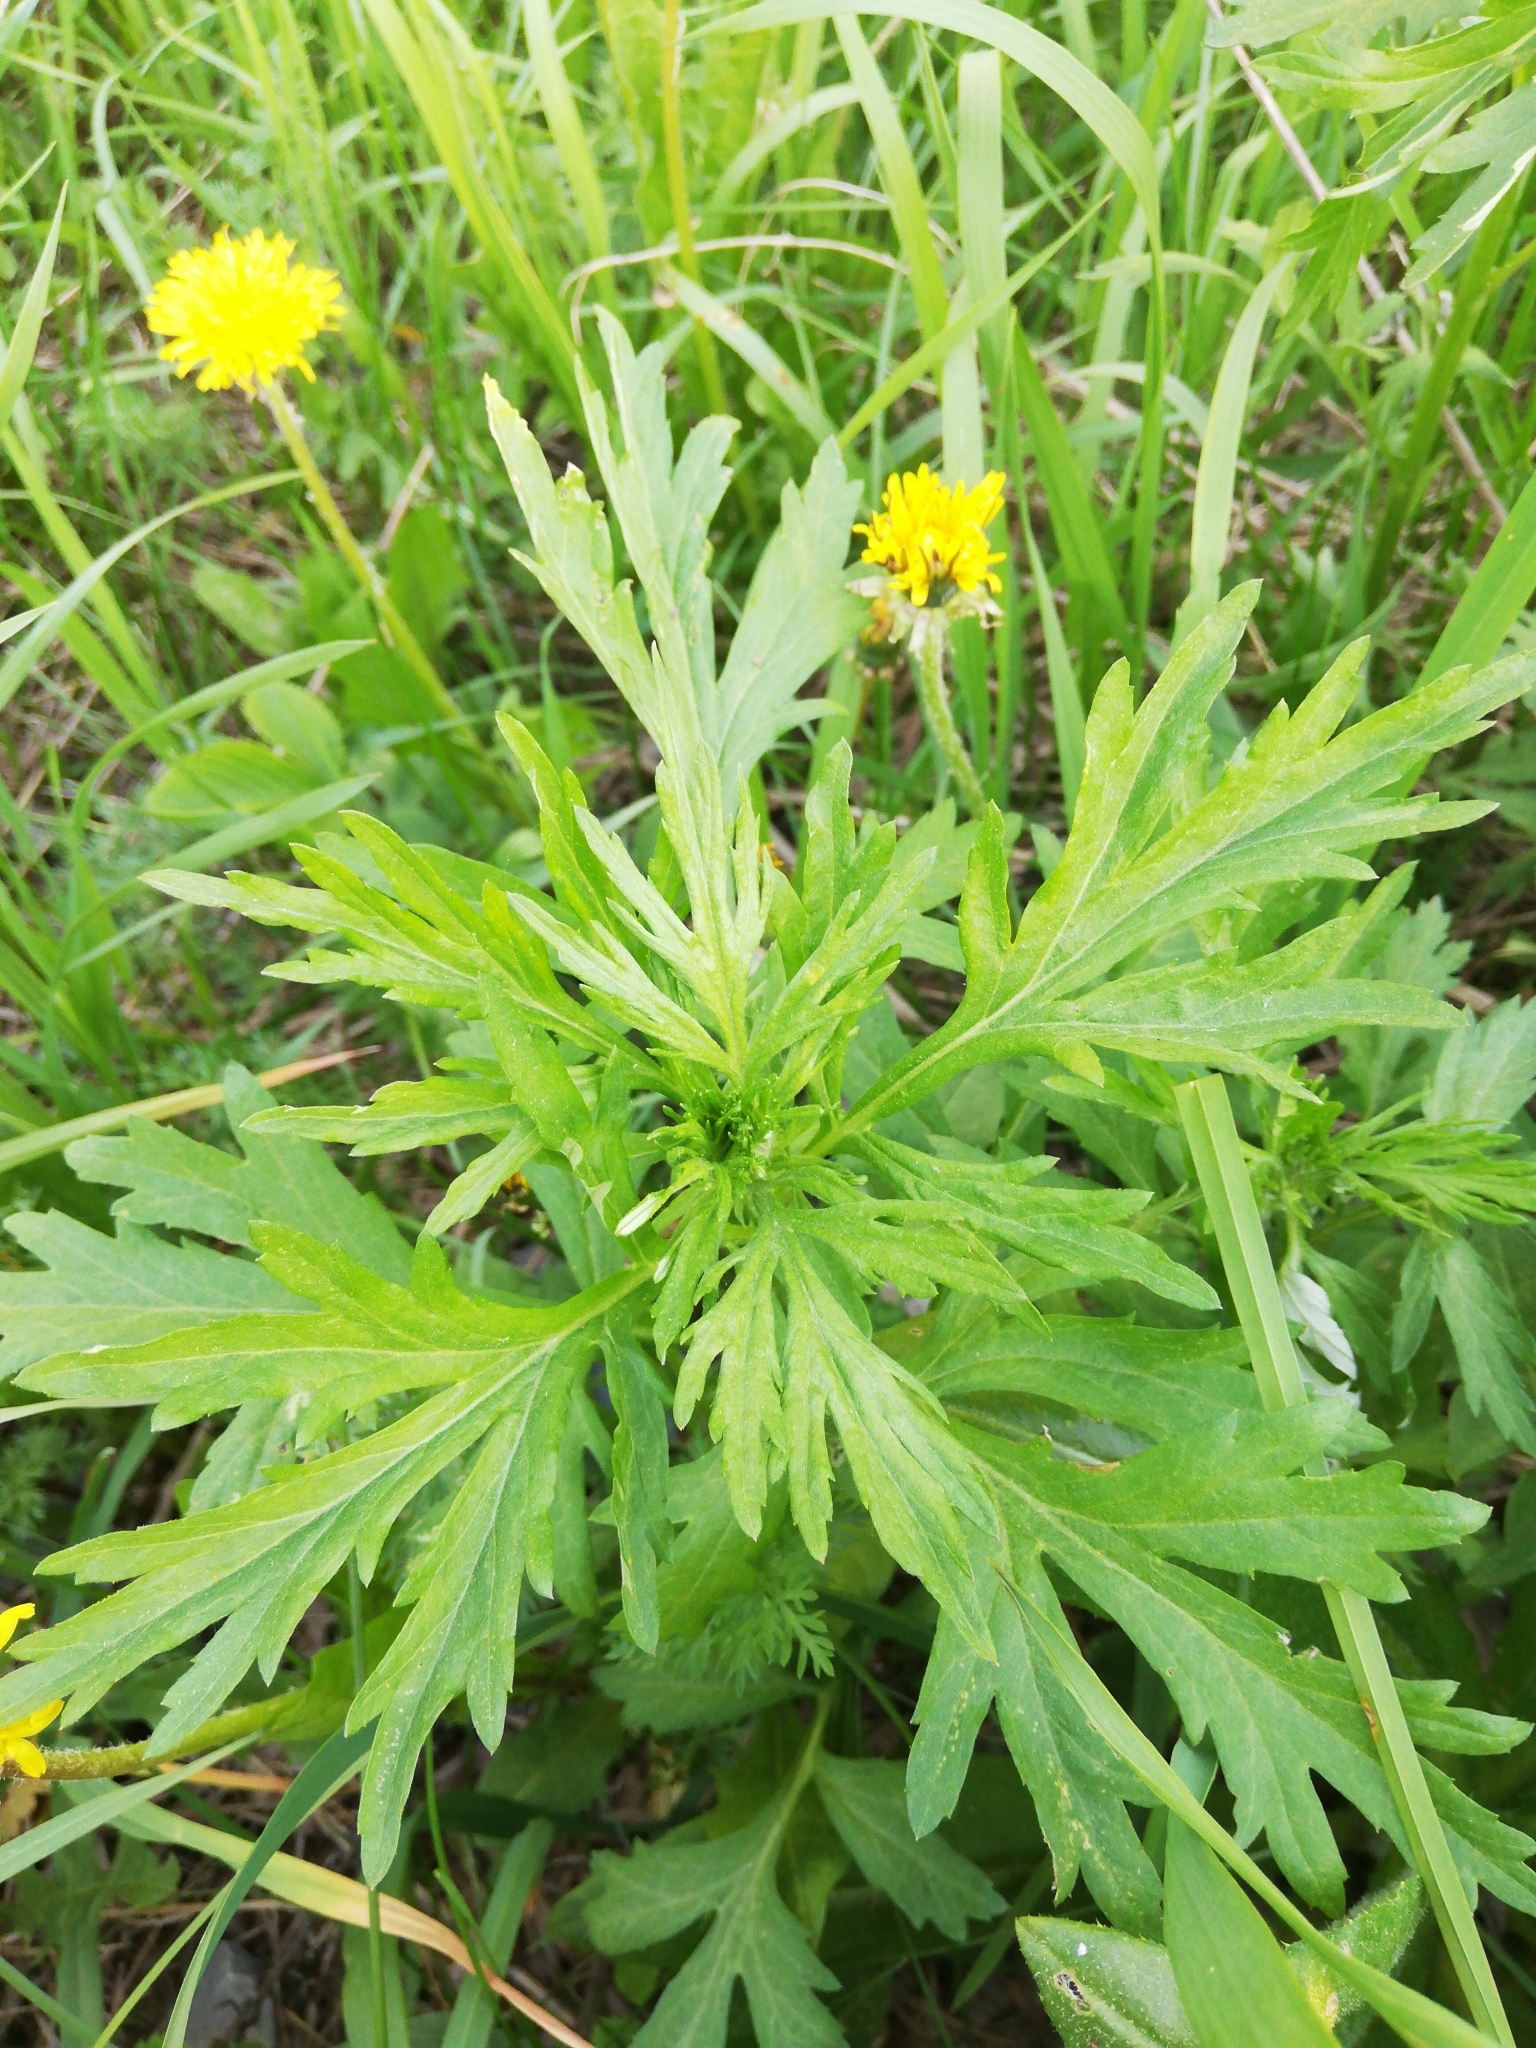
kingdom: Plantae
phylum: Tracheophyta
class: Magnoliopsida
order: Asterales
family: Asteraceae
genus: Artemisia
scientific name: Artemisia vulgaris
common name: Mugwort
